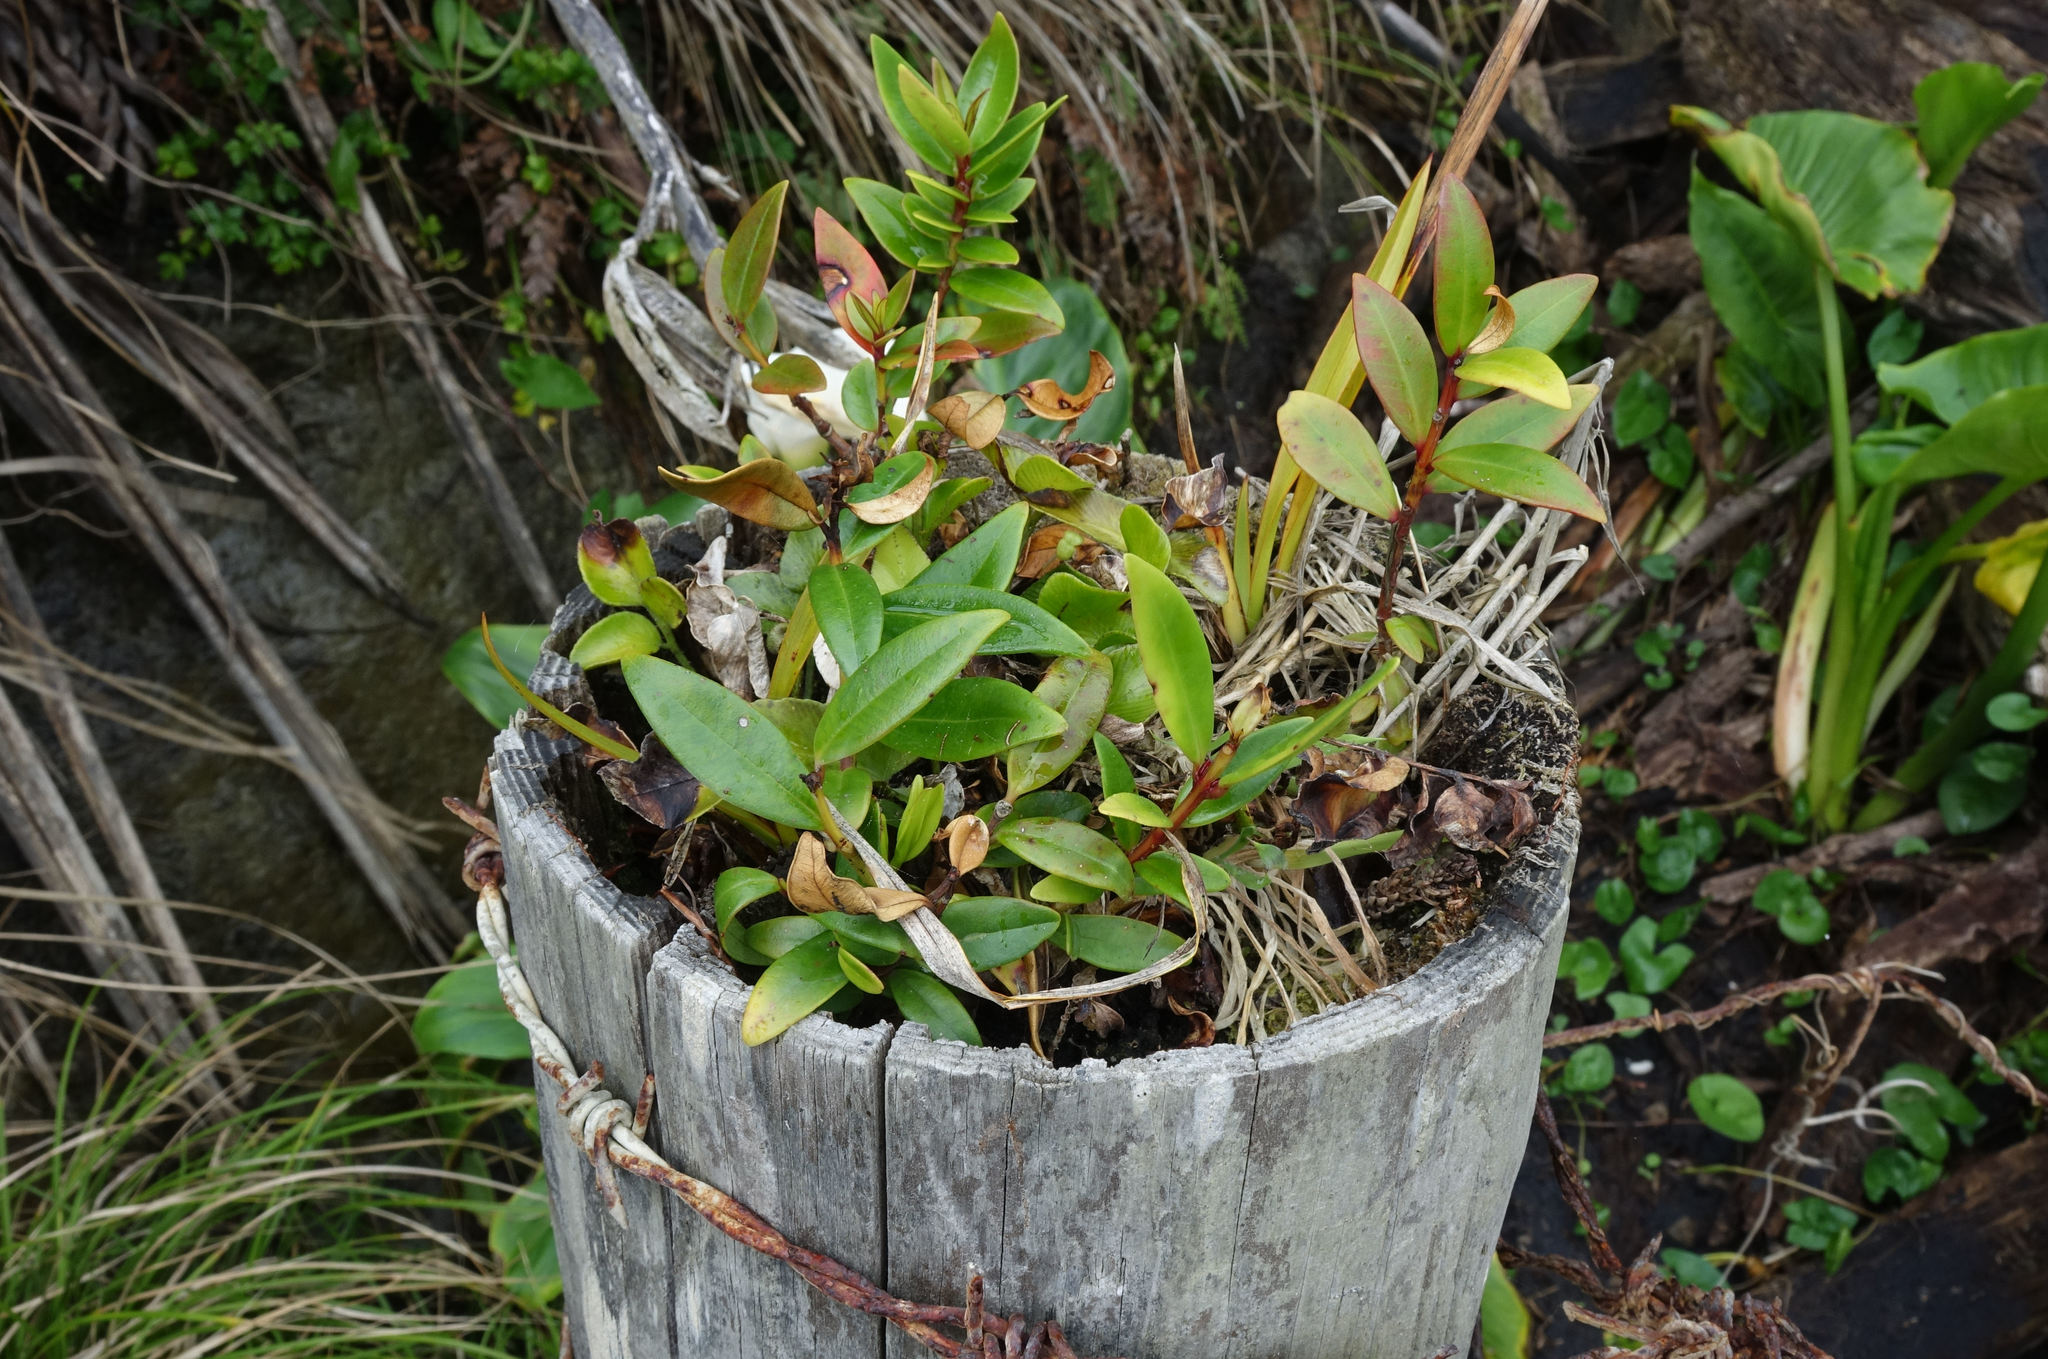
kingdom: Plantae
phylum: Tracheophyta
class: Magnoliopsida
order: Myrtales
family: Myrtaceae
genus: Metrosideros
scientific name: Metrosideros excelsa
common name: New zealand christmastree
